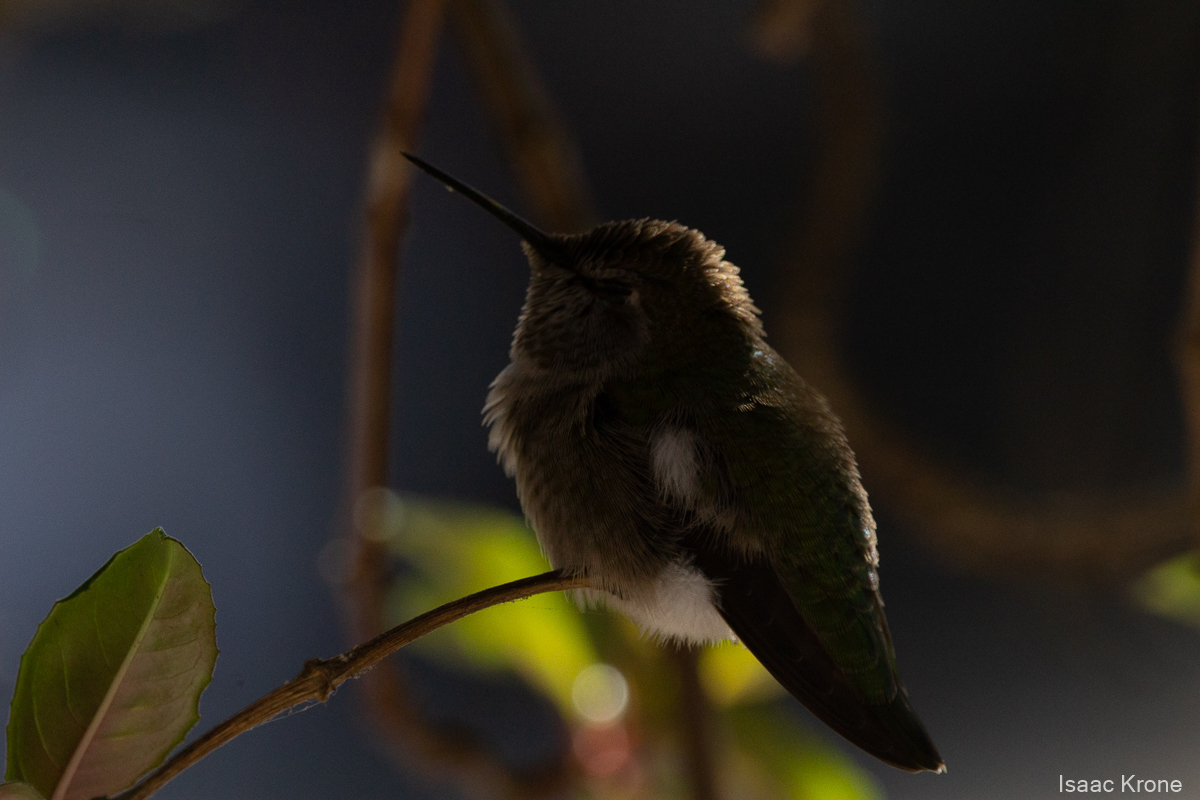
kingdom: Animalia
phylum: Chordata
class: Aves
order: Apodiformes
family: Trochilidae
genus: Calypte
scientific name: Calypte anna
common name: Anna's hummingbird
